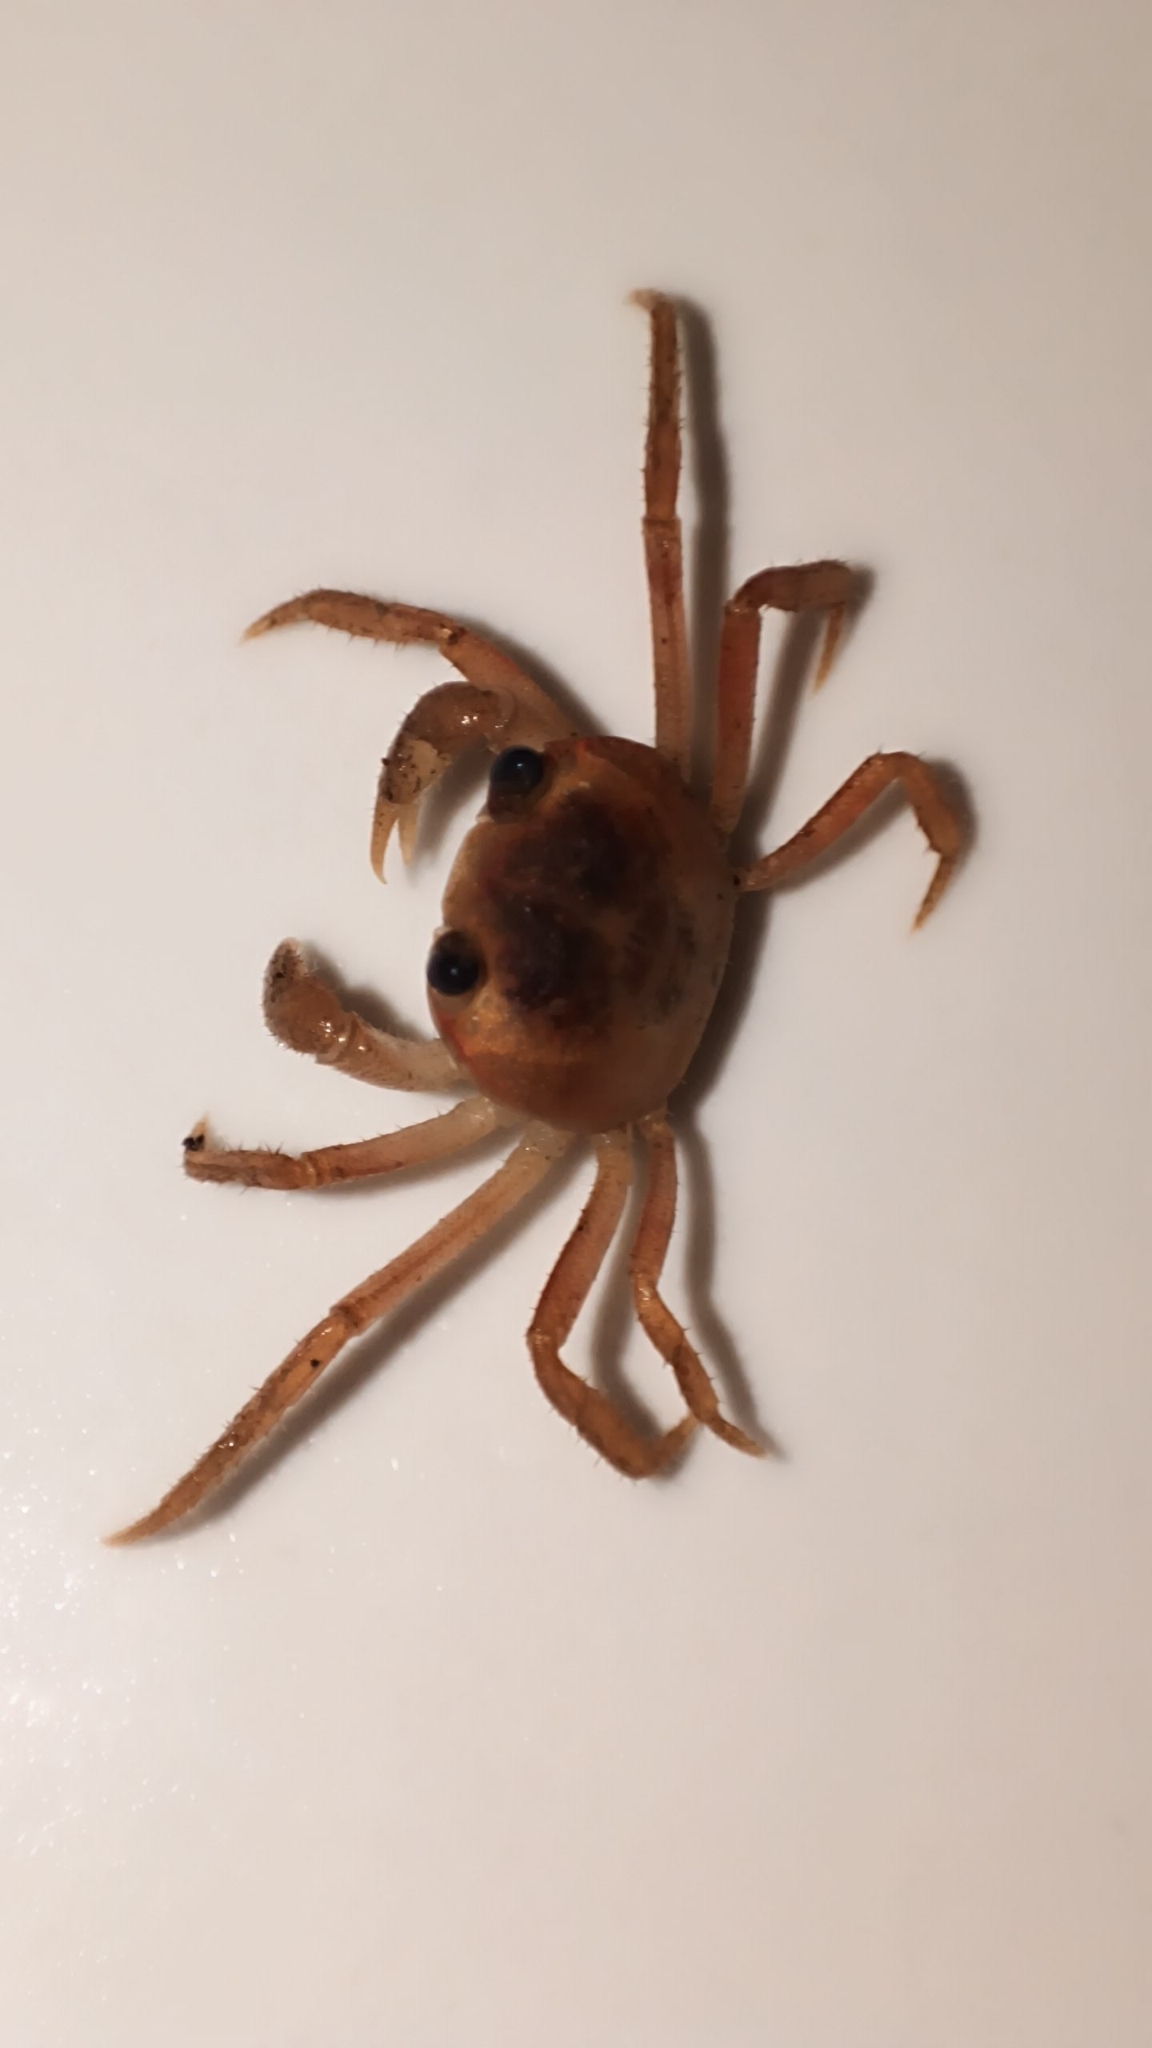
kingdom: Animalia
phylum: Arthropoda
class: Malacostraca
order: Decapoda
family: Gecarcinidae
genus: Gecarcinus
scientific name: Gecarcinus lateralis
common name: Bermuda land crab
